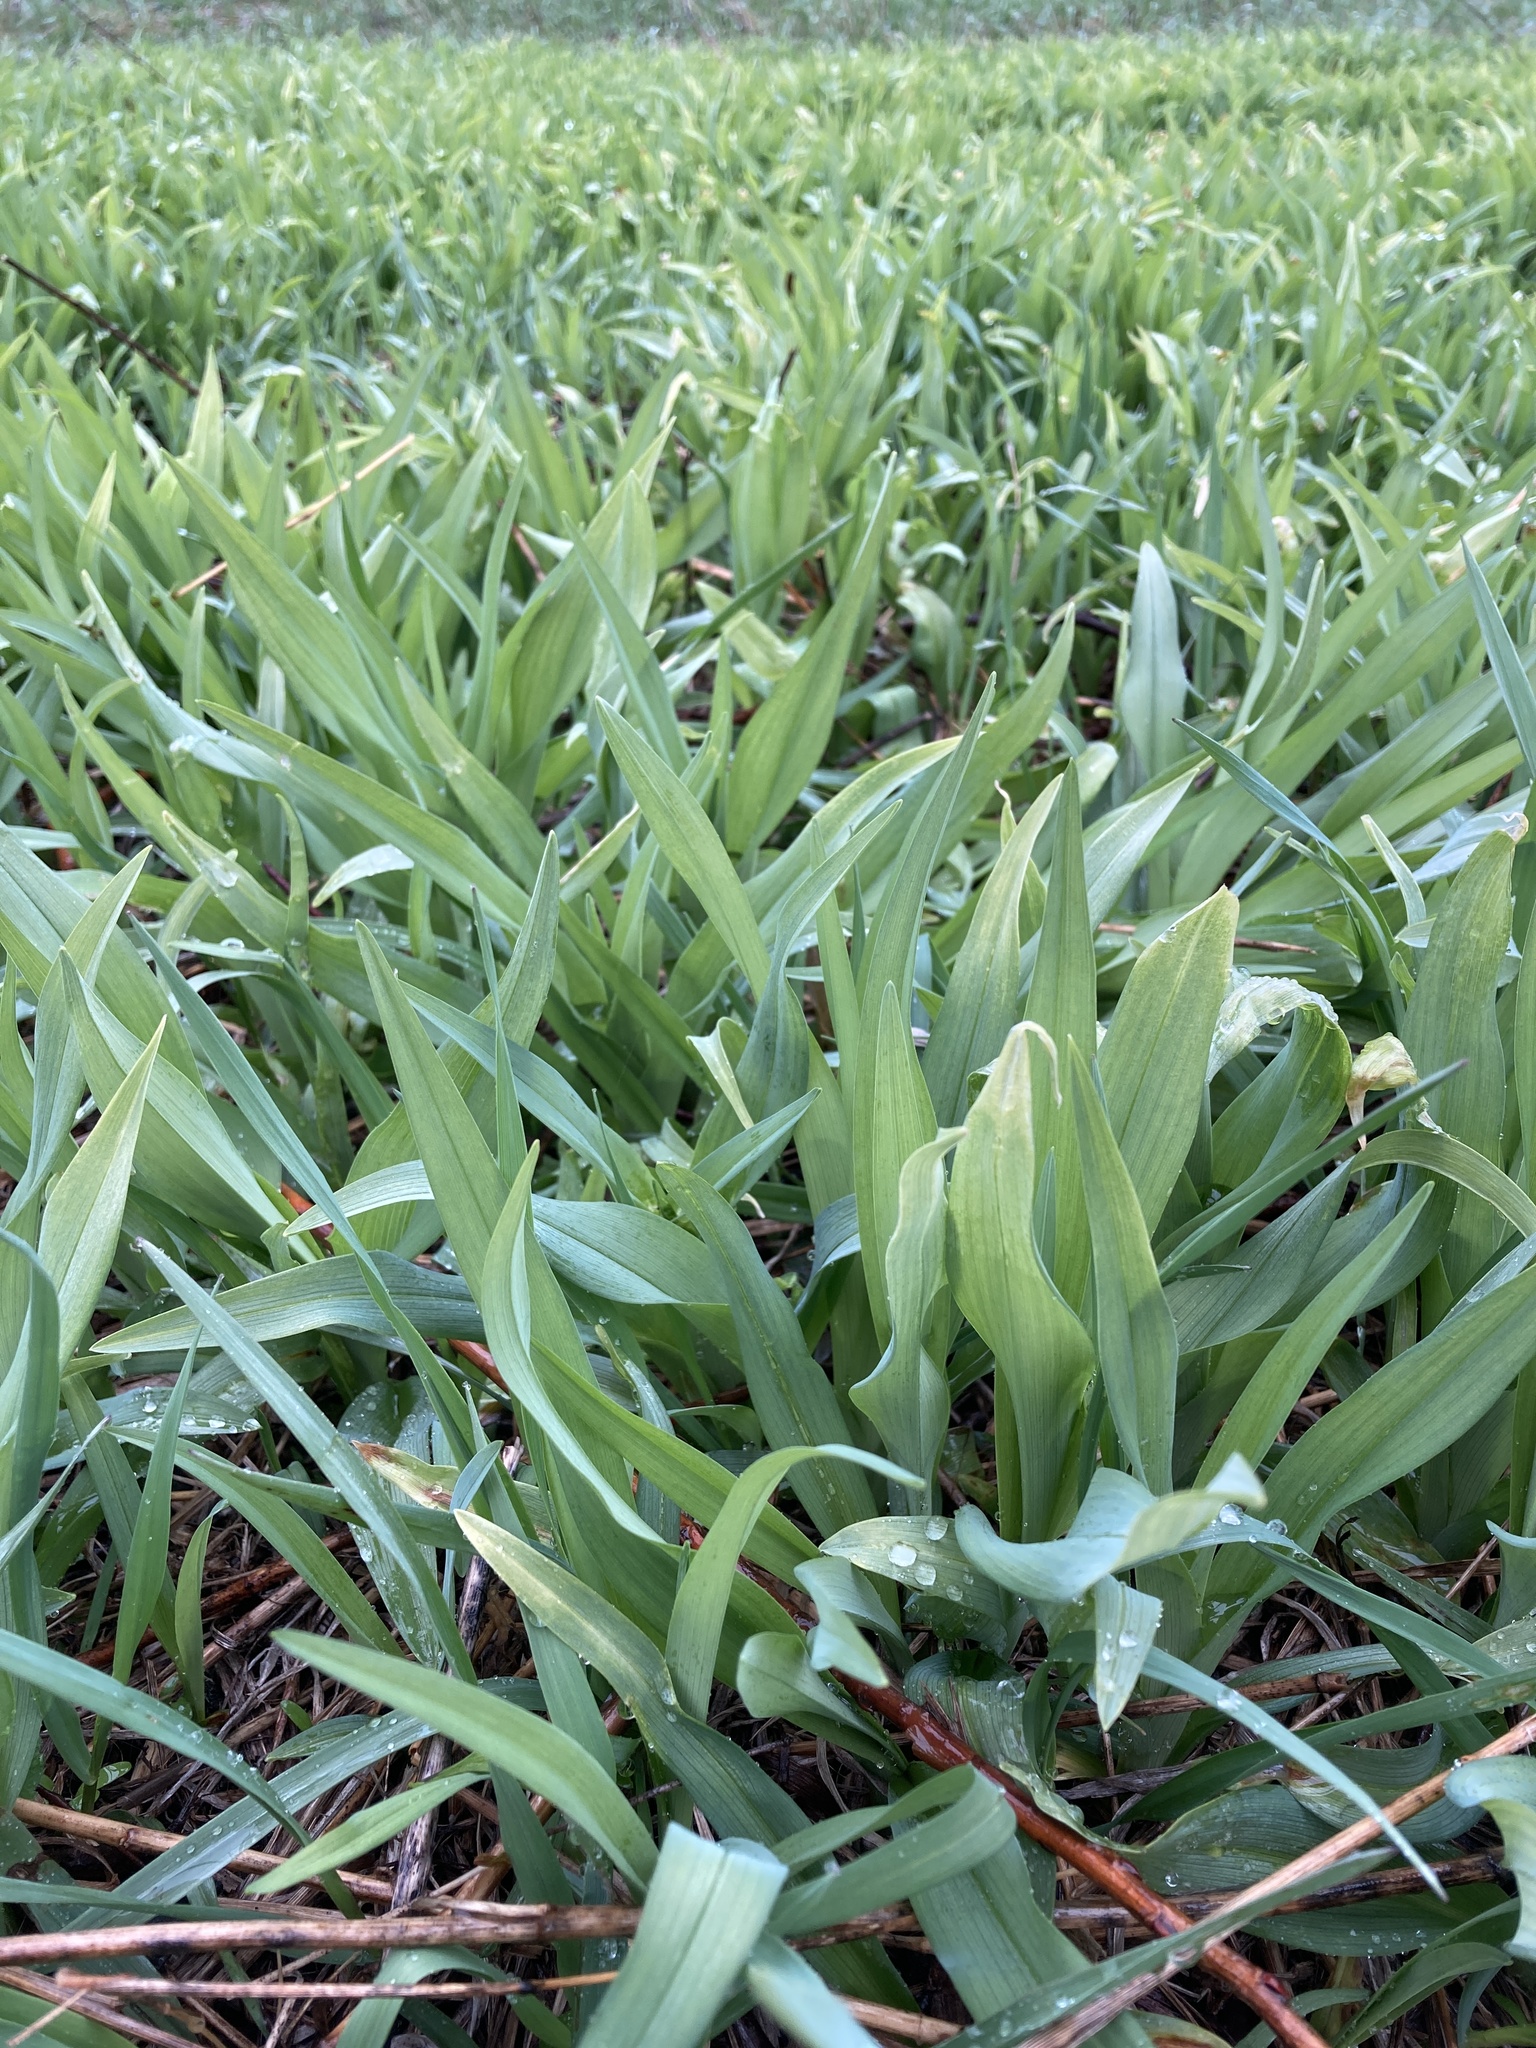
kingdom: Plantae
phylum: Tracheophyta
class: Liliopsida
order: Asparagales
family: Asphodelaceae
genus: Hemerocallis
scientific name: Hemerocallis fulva
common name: Orange day-lily
